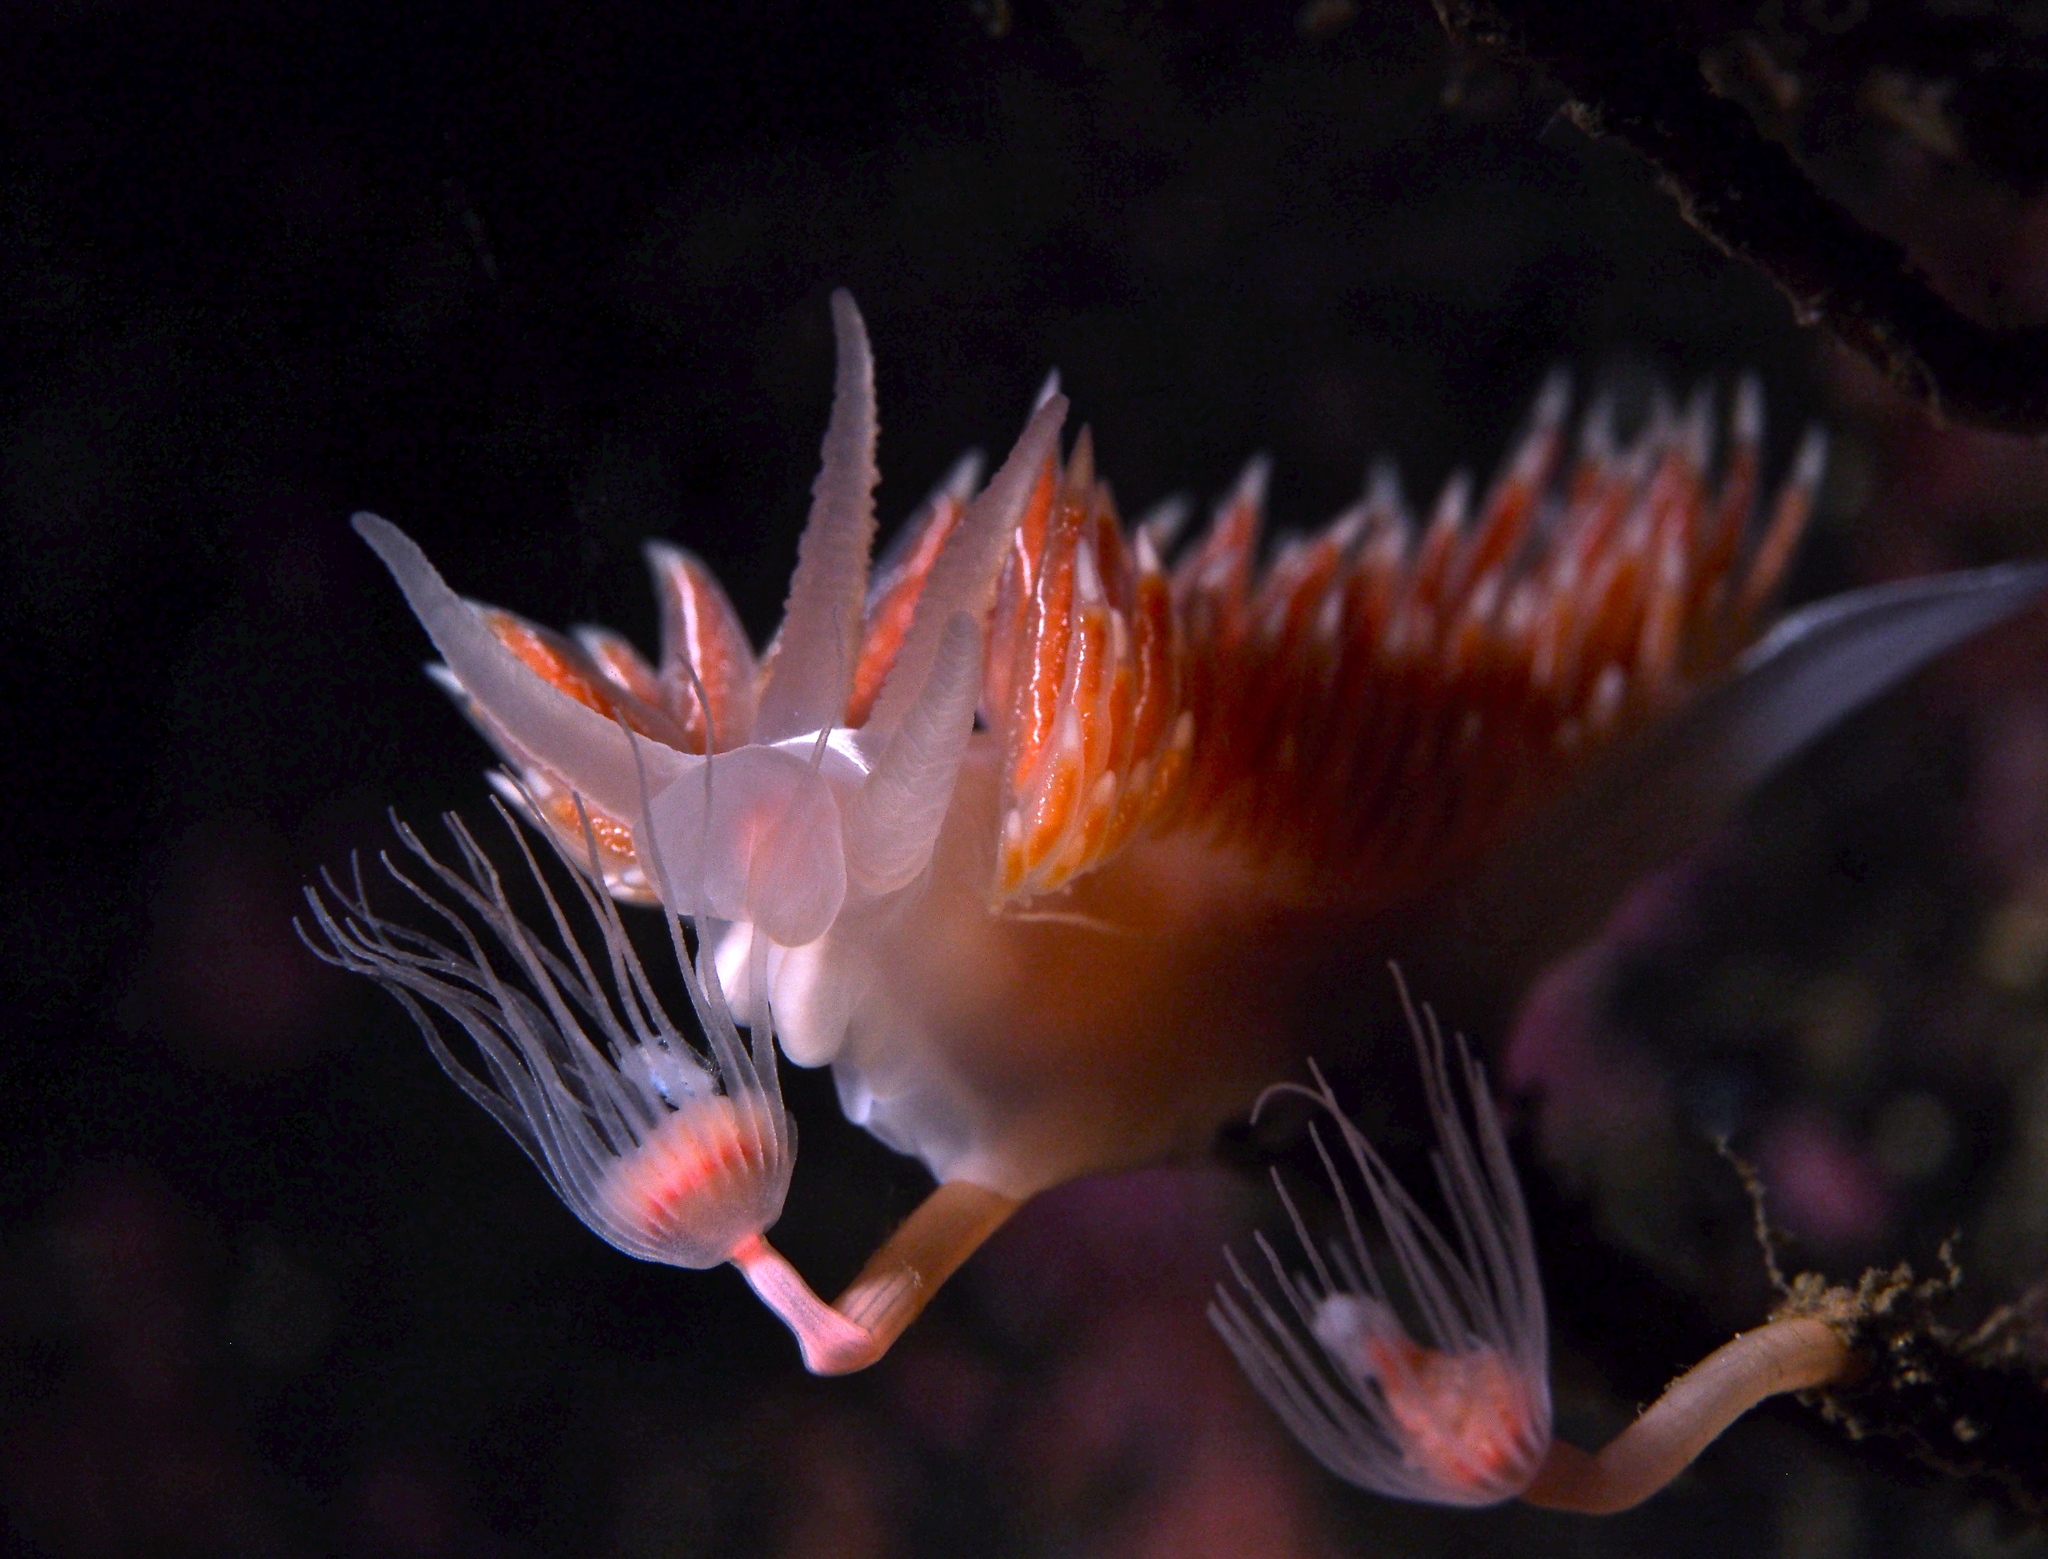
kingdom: Animalia
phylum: Mollusca
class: Gastropoda
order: Nudibranchia
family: Coryphellidae
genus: Coryphella
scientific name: Coryphella chriskaugei
